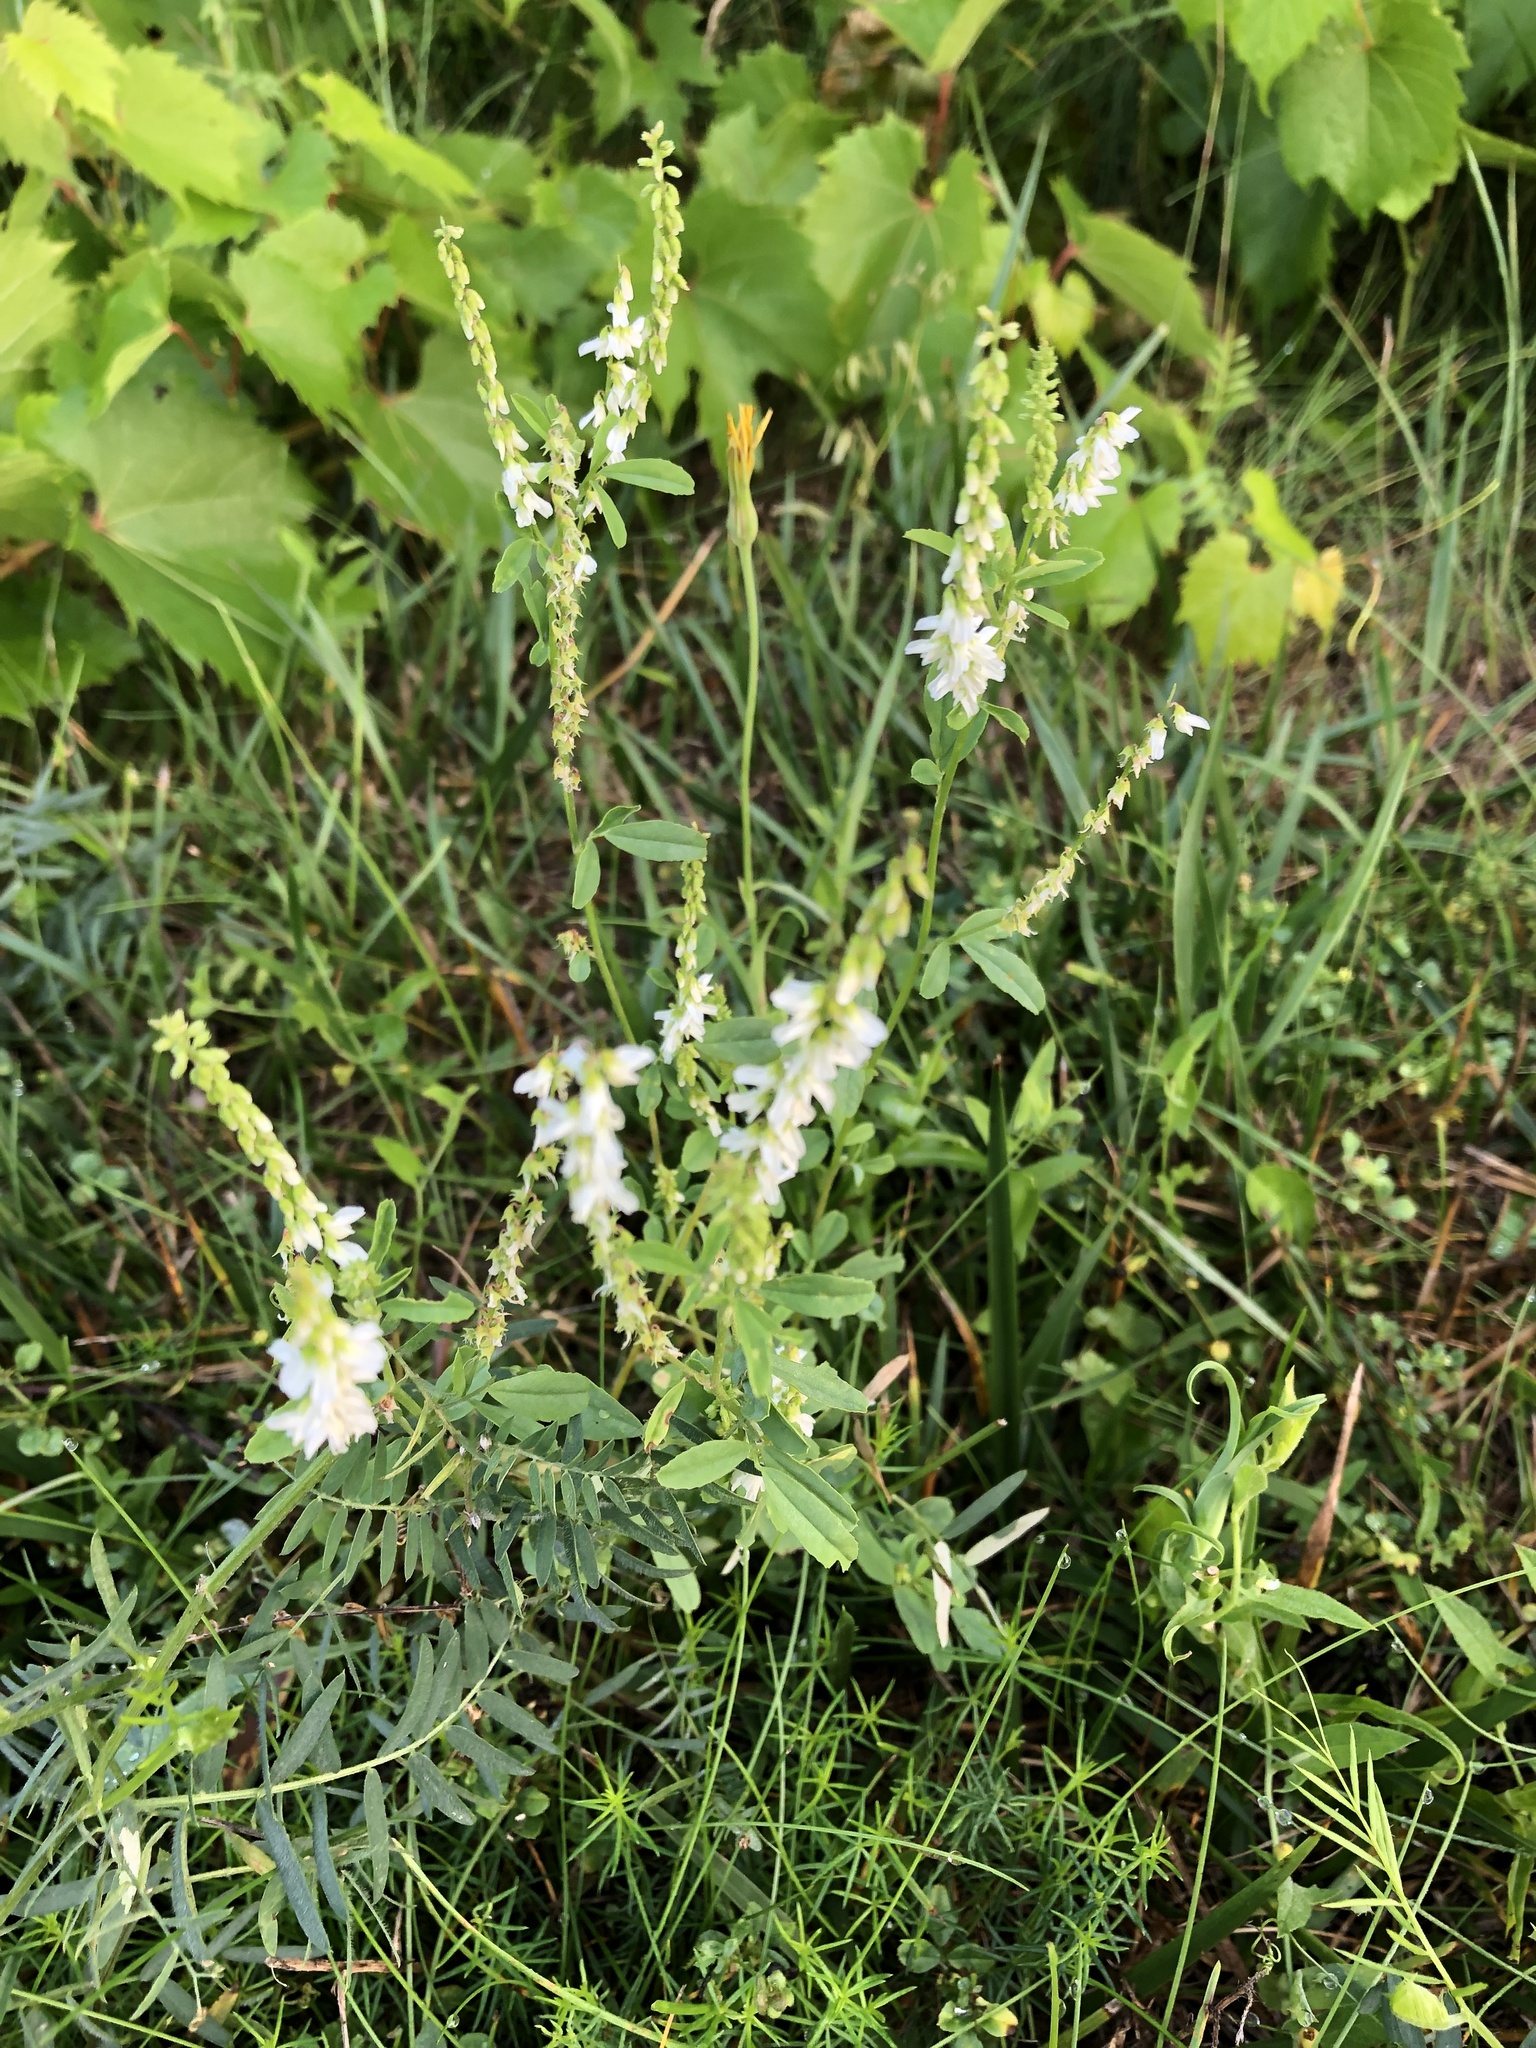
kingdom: Plantae
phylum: Tracheophyta
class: Magnoliopsida
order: Fabales
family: Fabaceae
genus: Melilotus
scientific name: Melilotus albus
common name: White melilot
